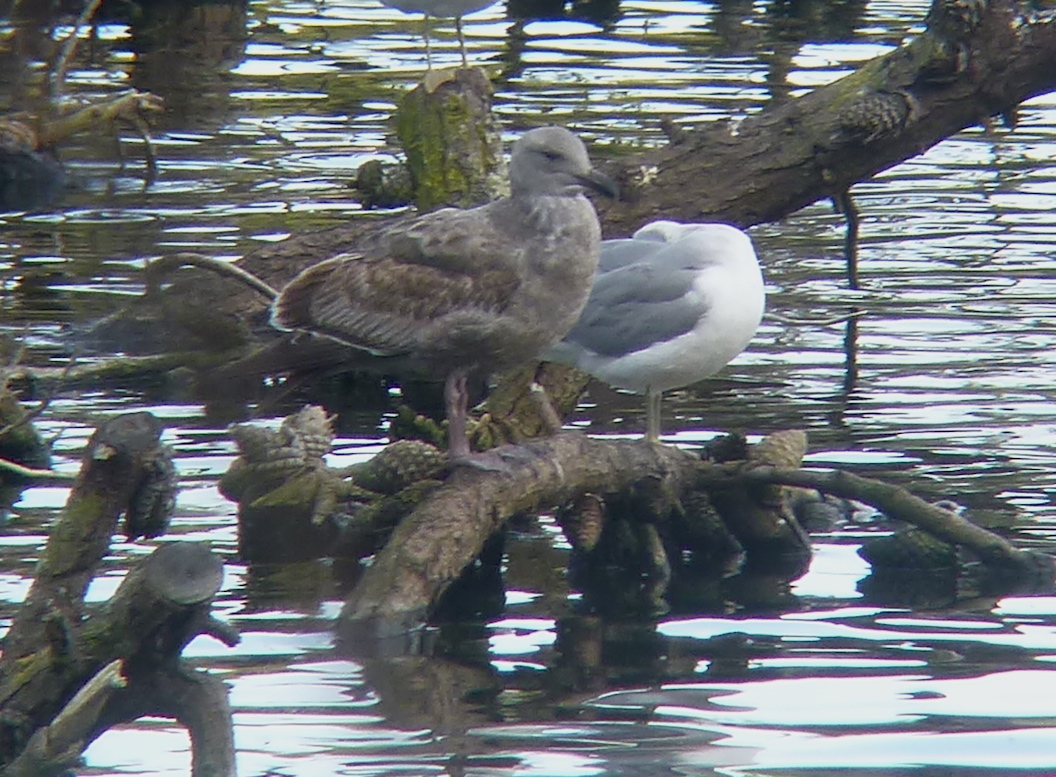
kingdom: Animalia
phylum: Chordata
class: Aves
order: Charadriiformes
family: Laridae
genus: Larus
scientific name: Larus occidentalis
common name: Western gull
